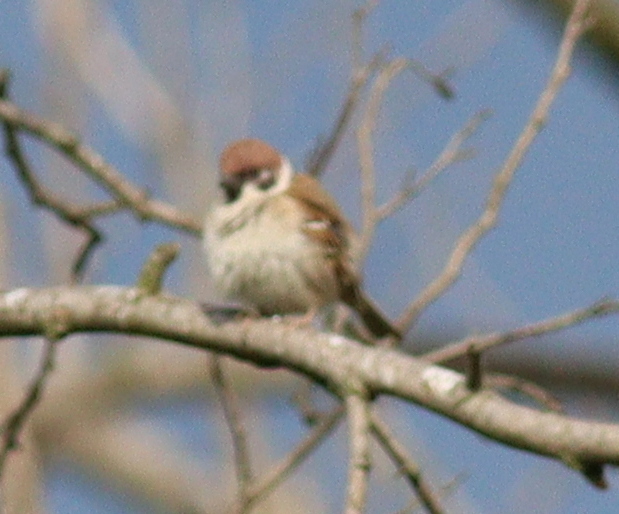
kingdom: Animalia
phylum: Chordata
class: Aves
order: Passeriformes
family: Passeridae
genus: Passer
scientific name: Passer montanus
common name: Eurasian tree sparrow
